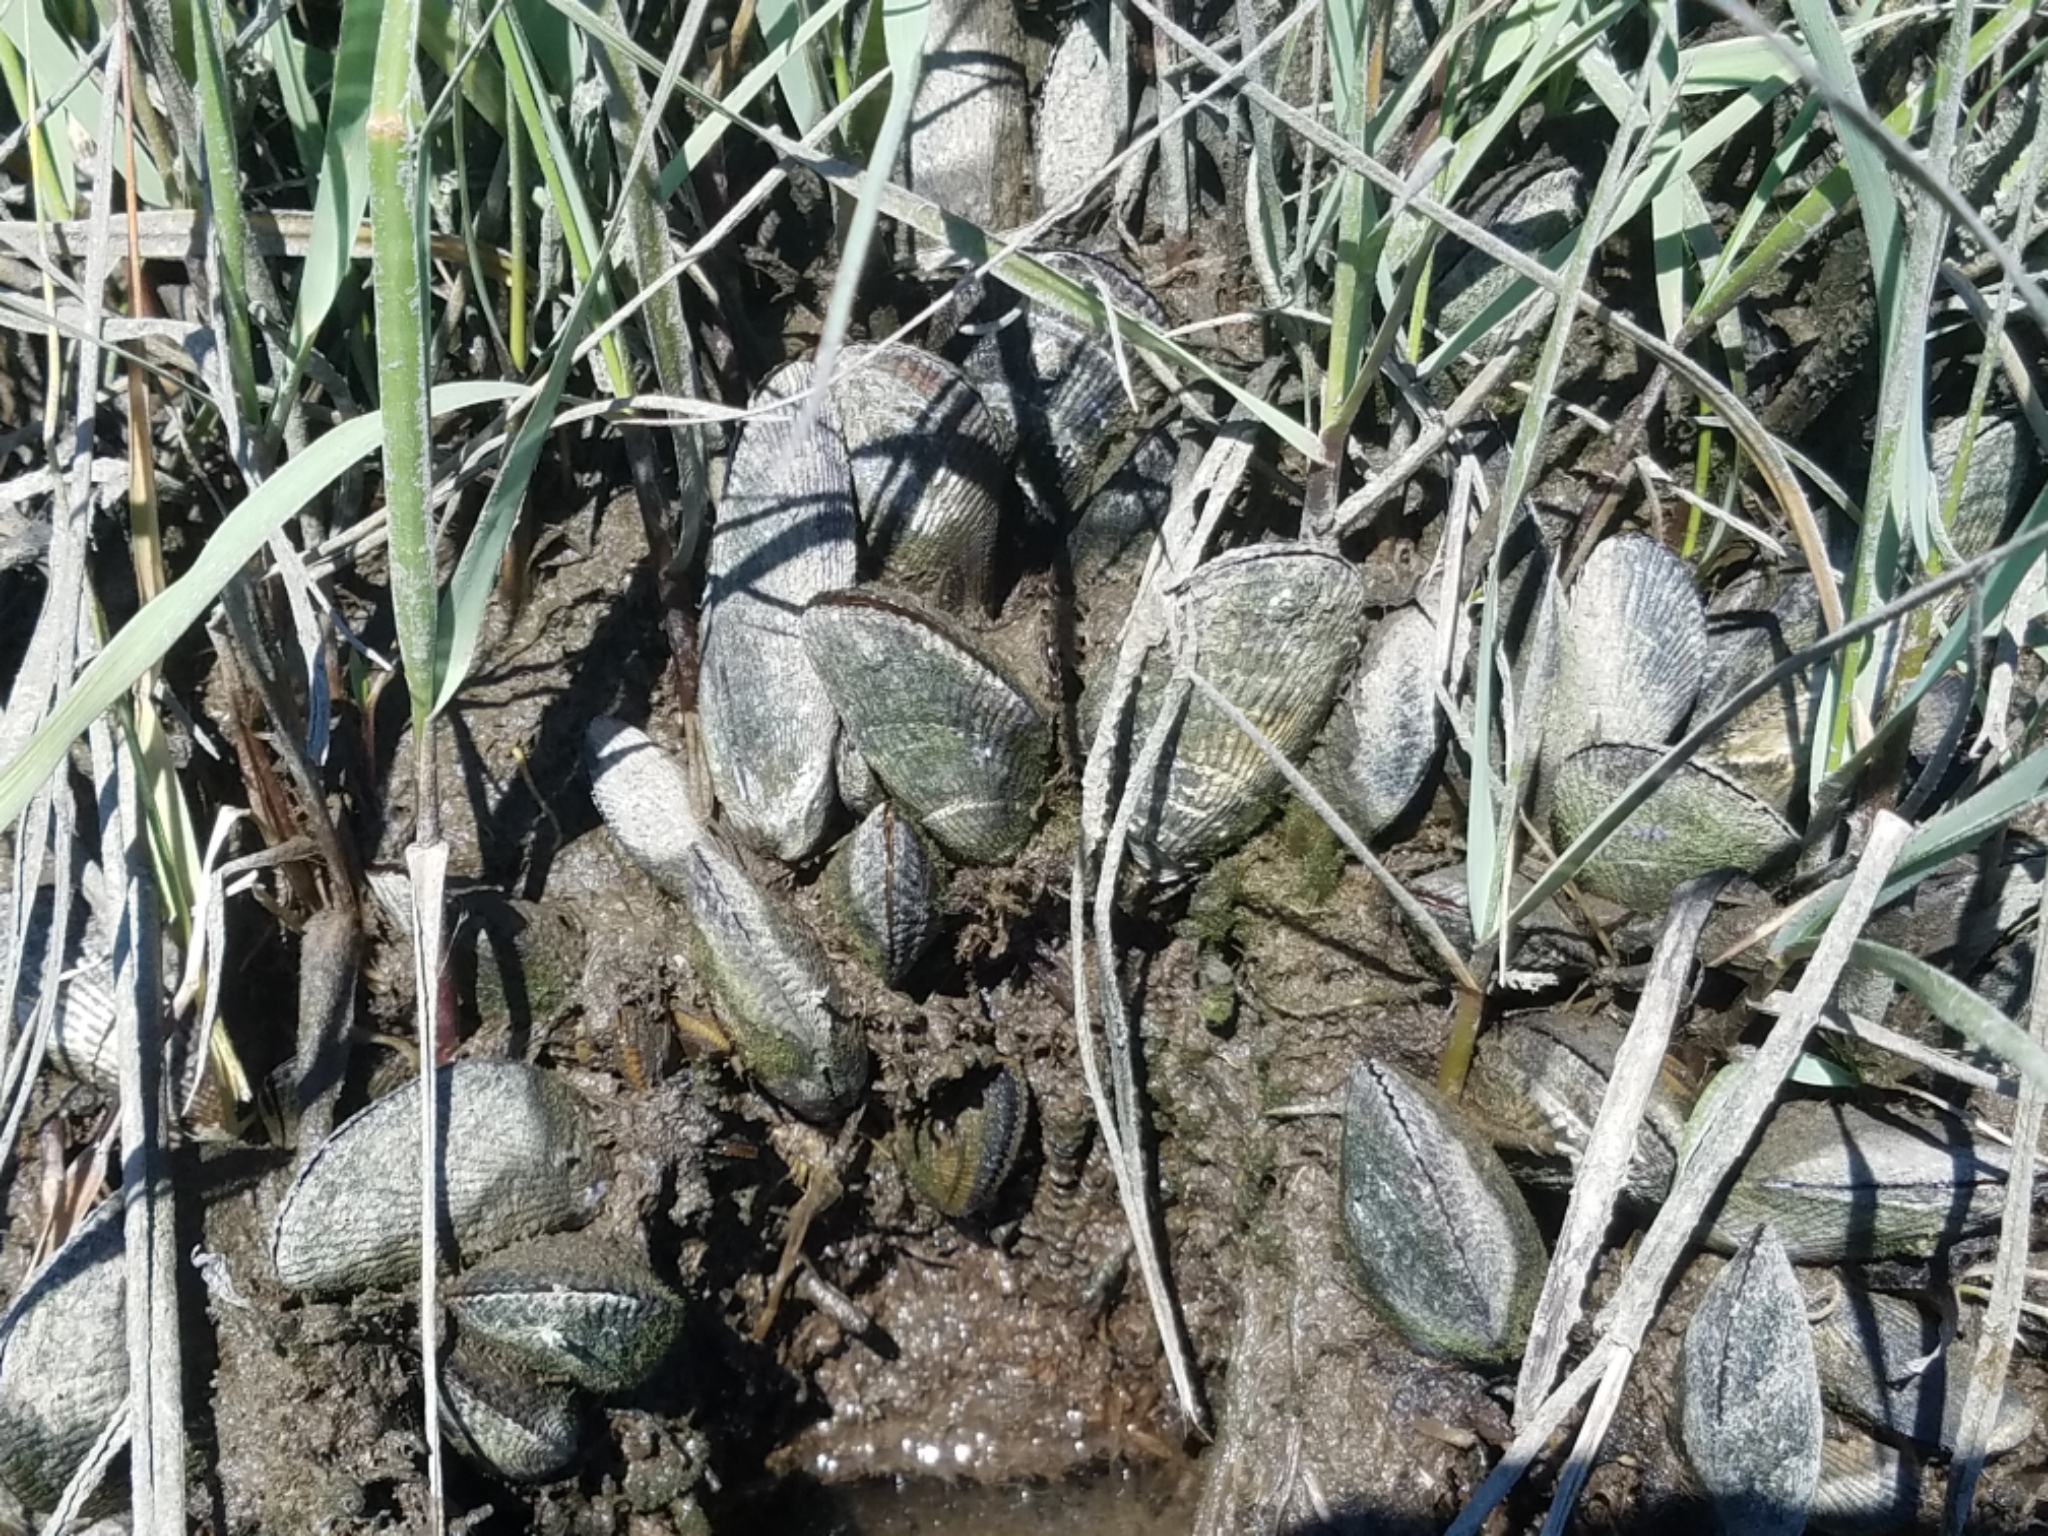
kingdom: Animalia
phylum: Mollusca
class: Bivalvia
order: Mytilida
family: Mytilidae
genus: Geukensia
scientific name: Geukensia demissa
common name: Ribbed mussel
